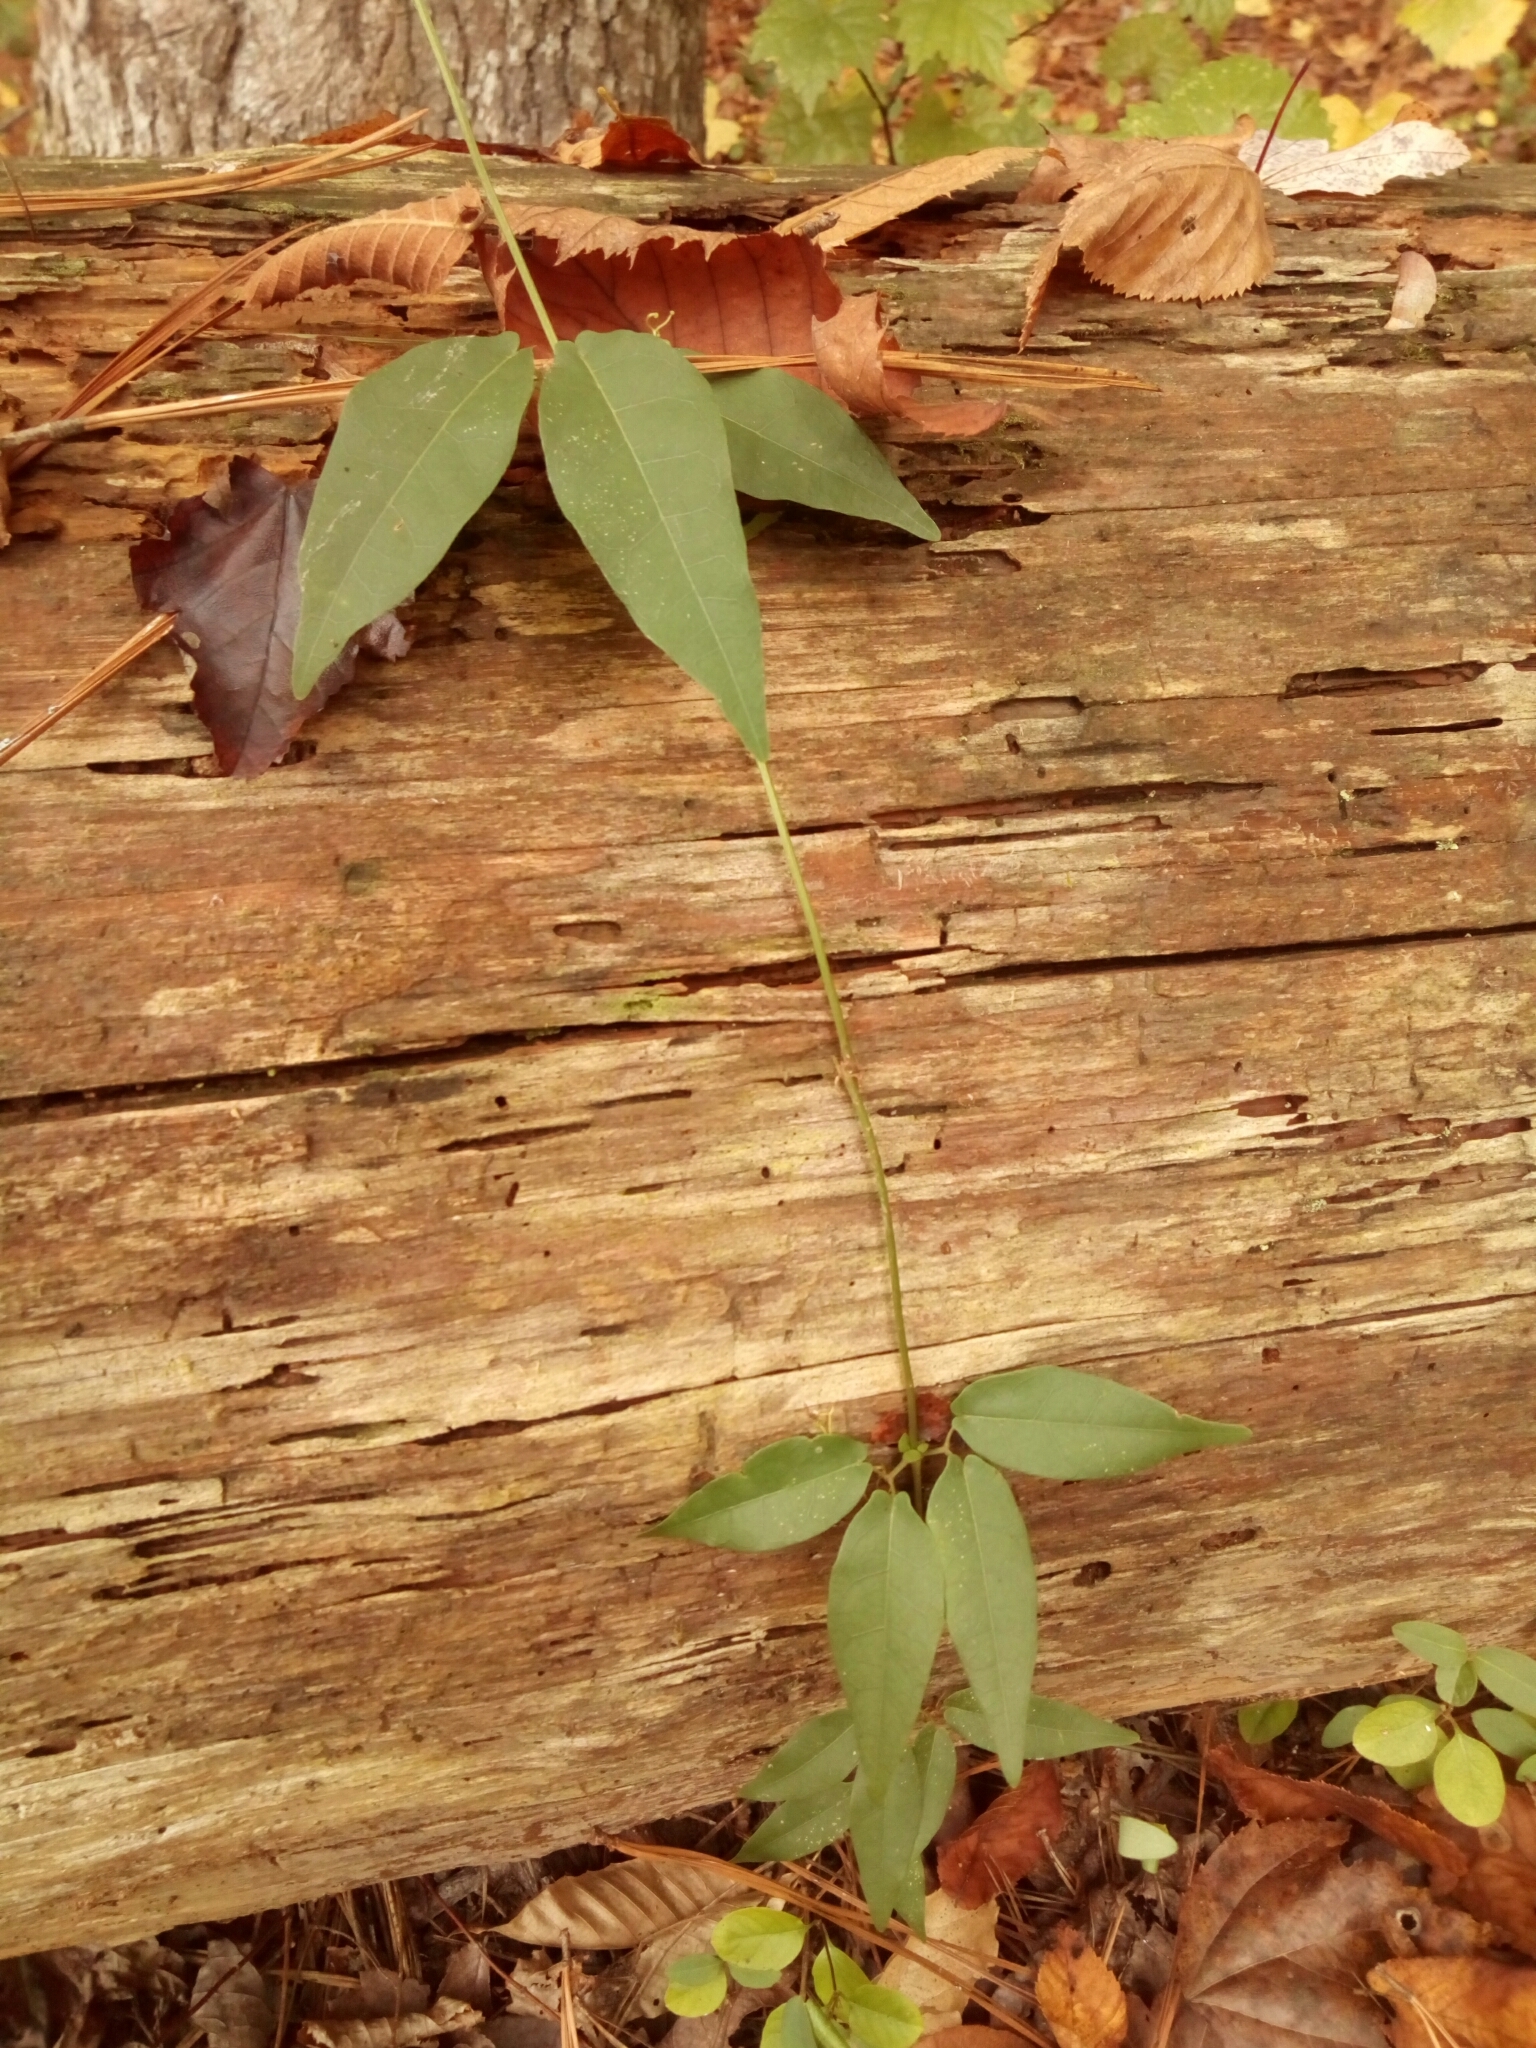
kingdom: Plantae
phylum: Tracheophyta
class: Magnoliopsida
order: Lamiales
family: Bignoniaceae
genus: Bignonia
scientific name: Bignonia capreolata
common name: Crossvine
